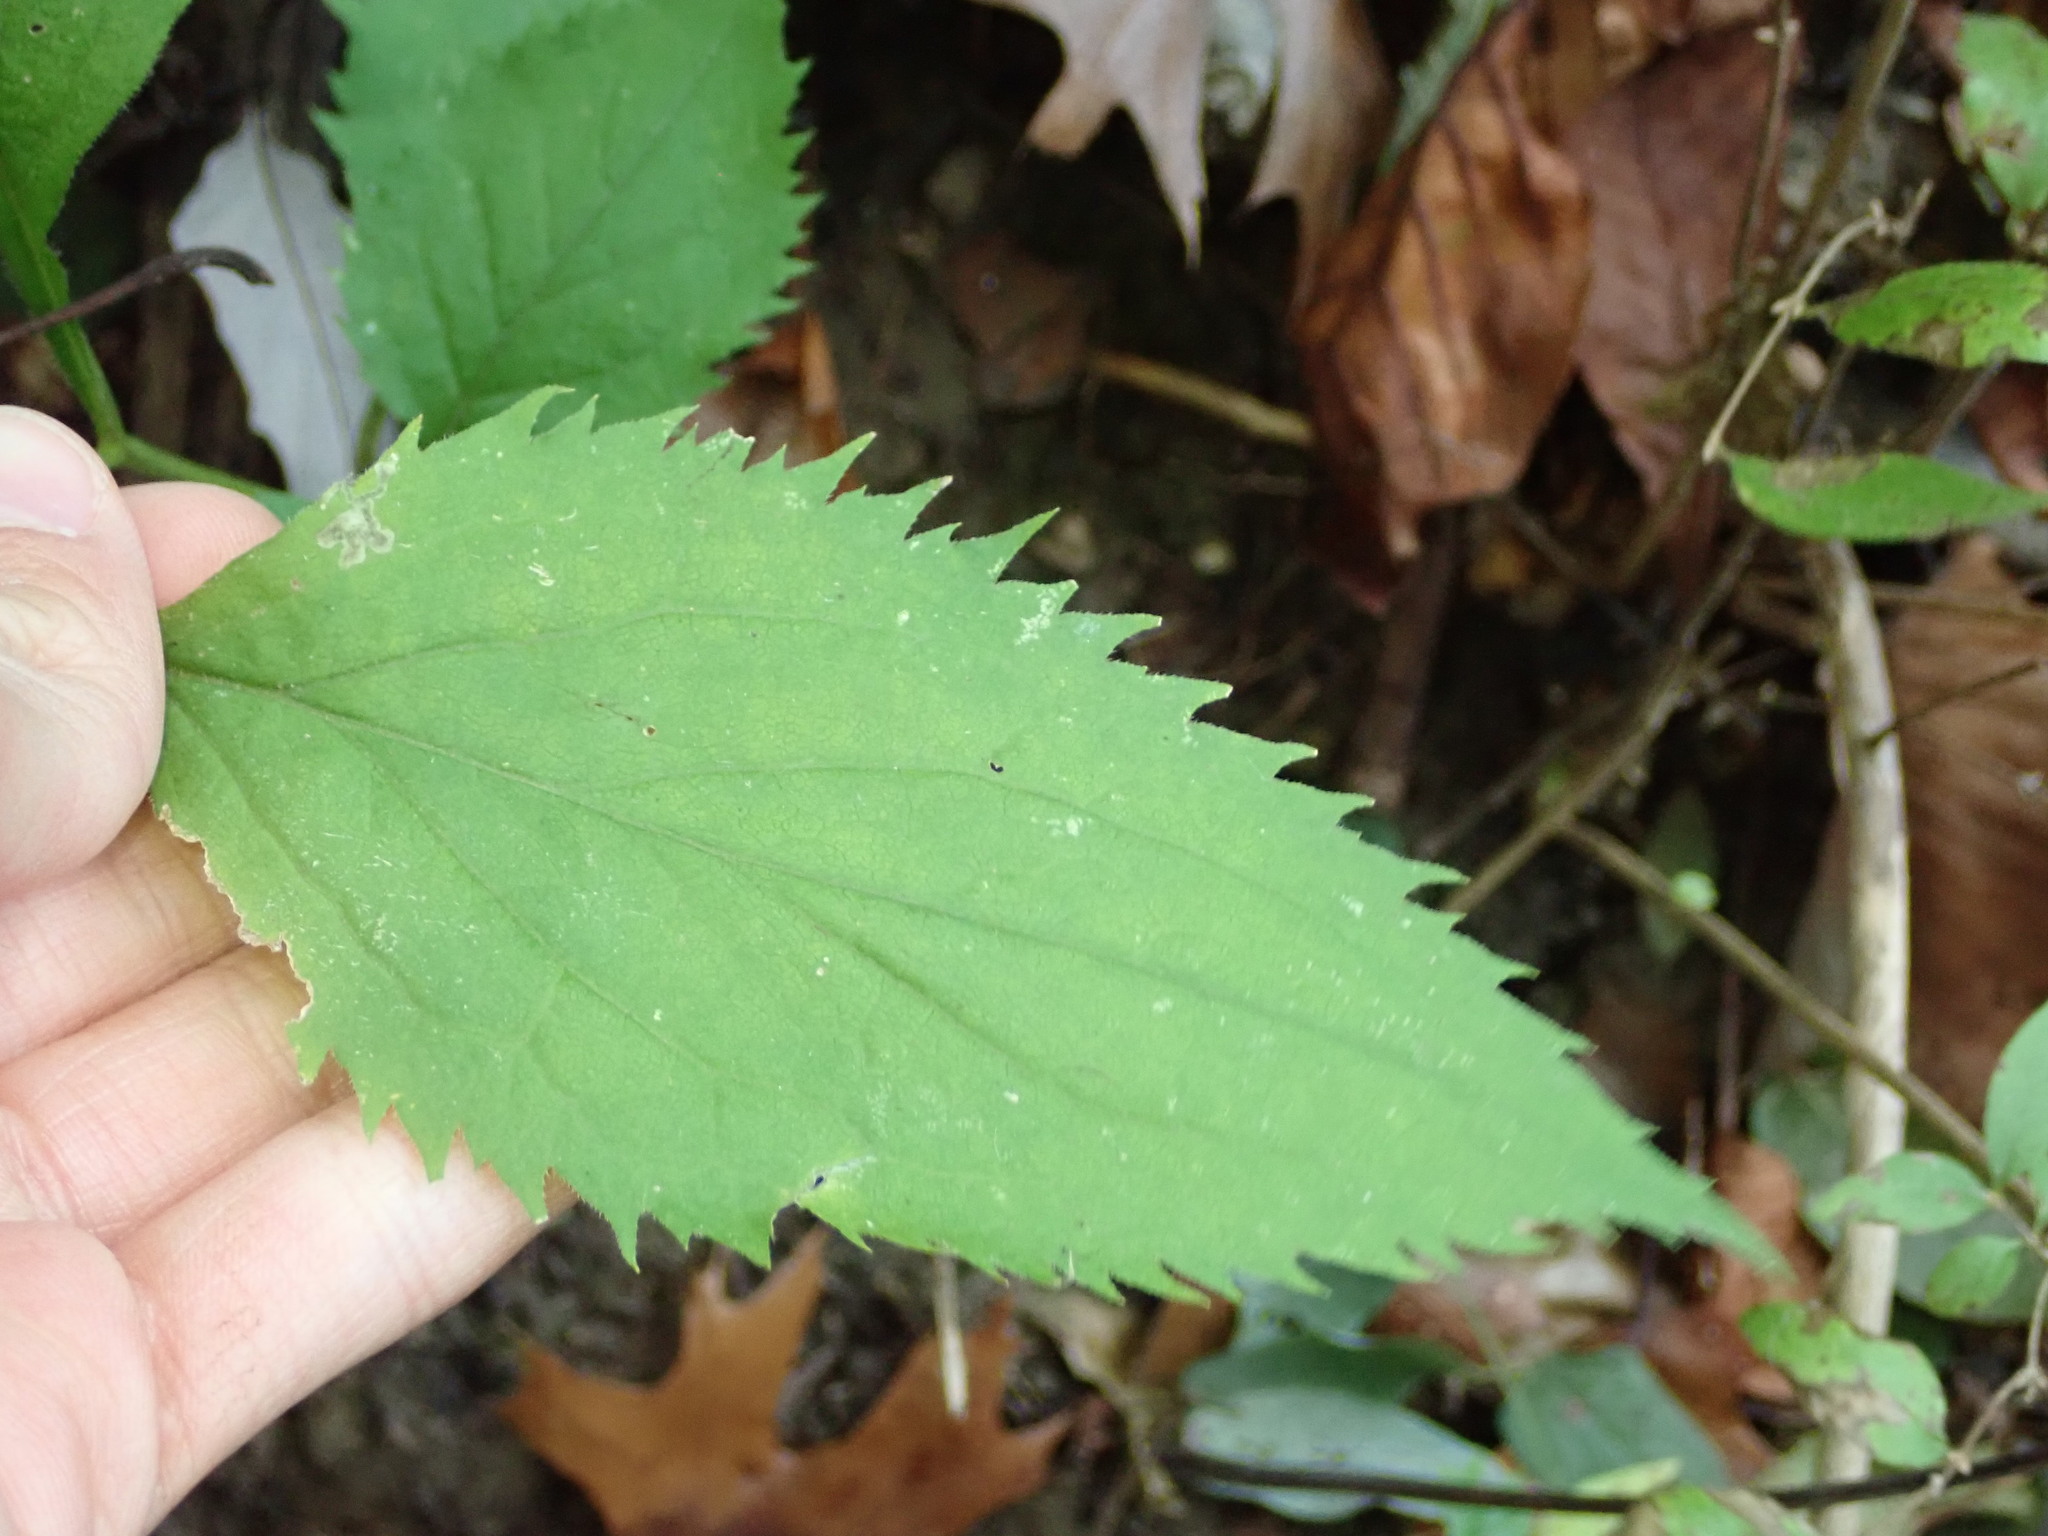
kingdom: Plantae
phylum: Tracheophyta
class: Magnoliopsida
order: Asterales
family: Asteraceae
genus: Solidago
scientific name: Solidago flexicaulis
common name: Zig-zag goldenrod
